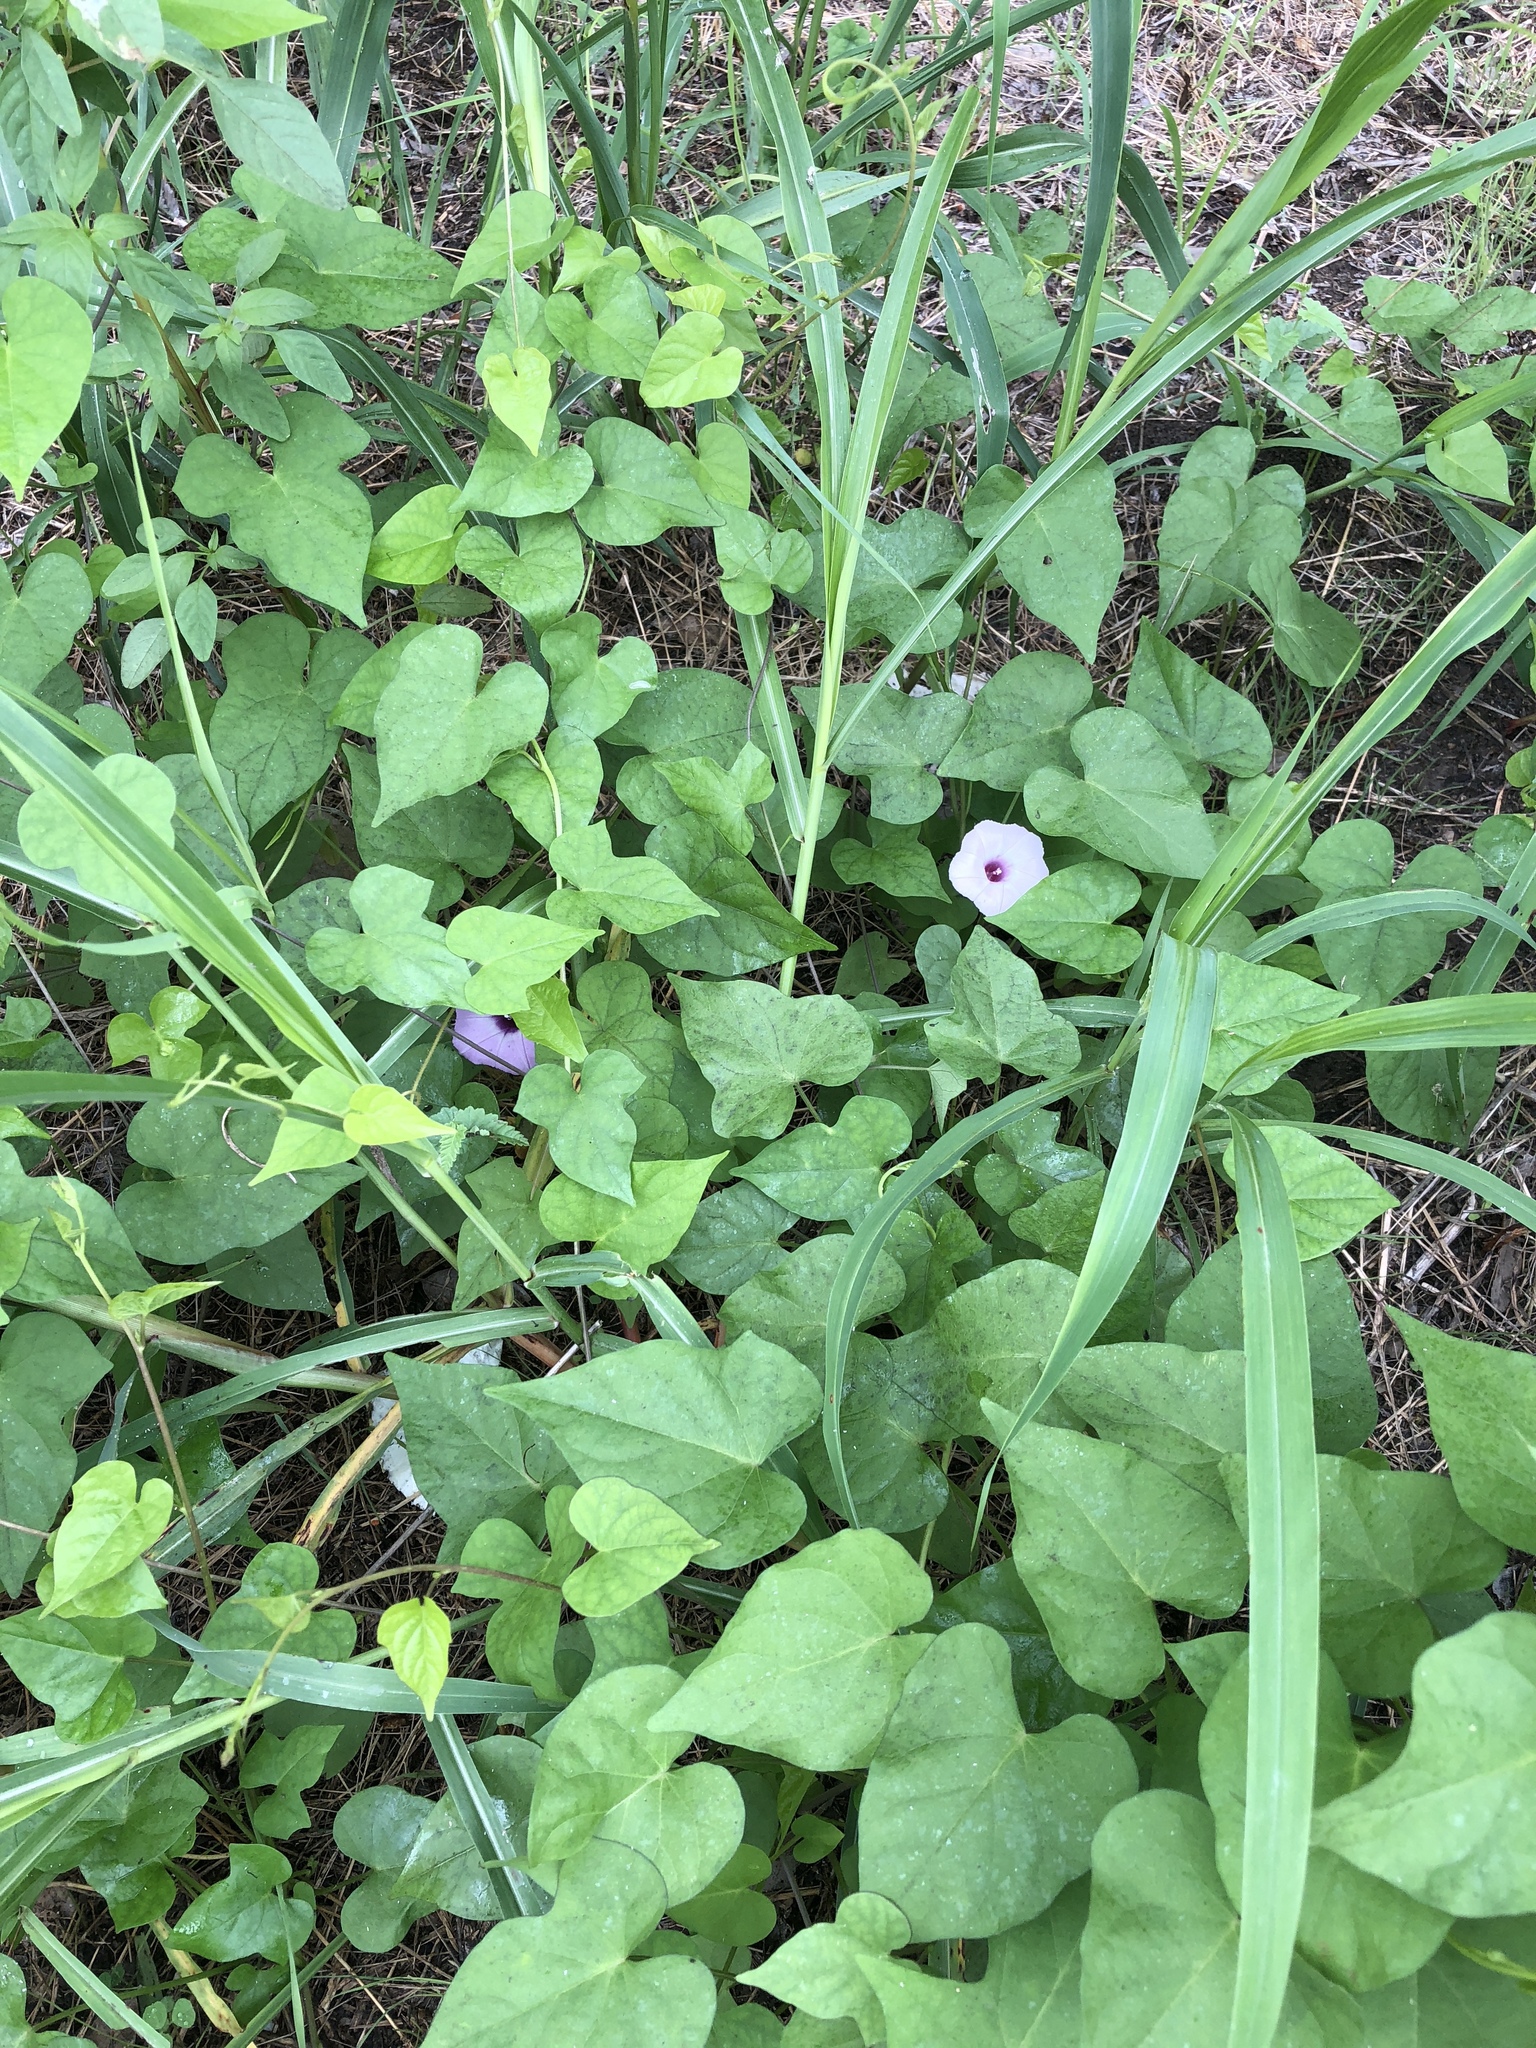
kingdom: Plantae
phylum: Tracheophyta
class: Magnoliopsida
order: Solanales
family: Convolvulaceae
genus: Ipomoea
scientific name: Ipomoea cordatotriloba
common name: Cotton morning glory
